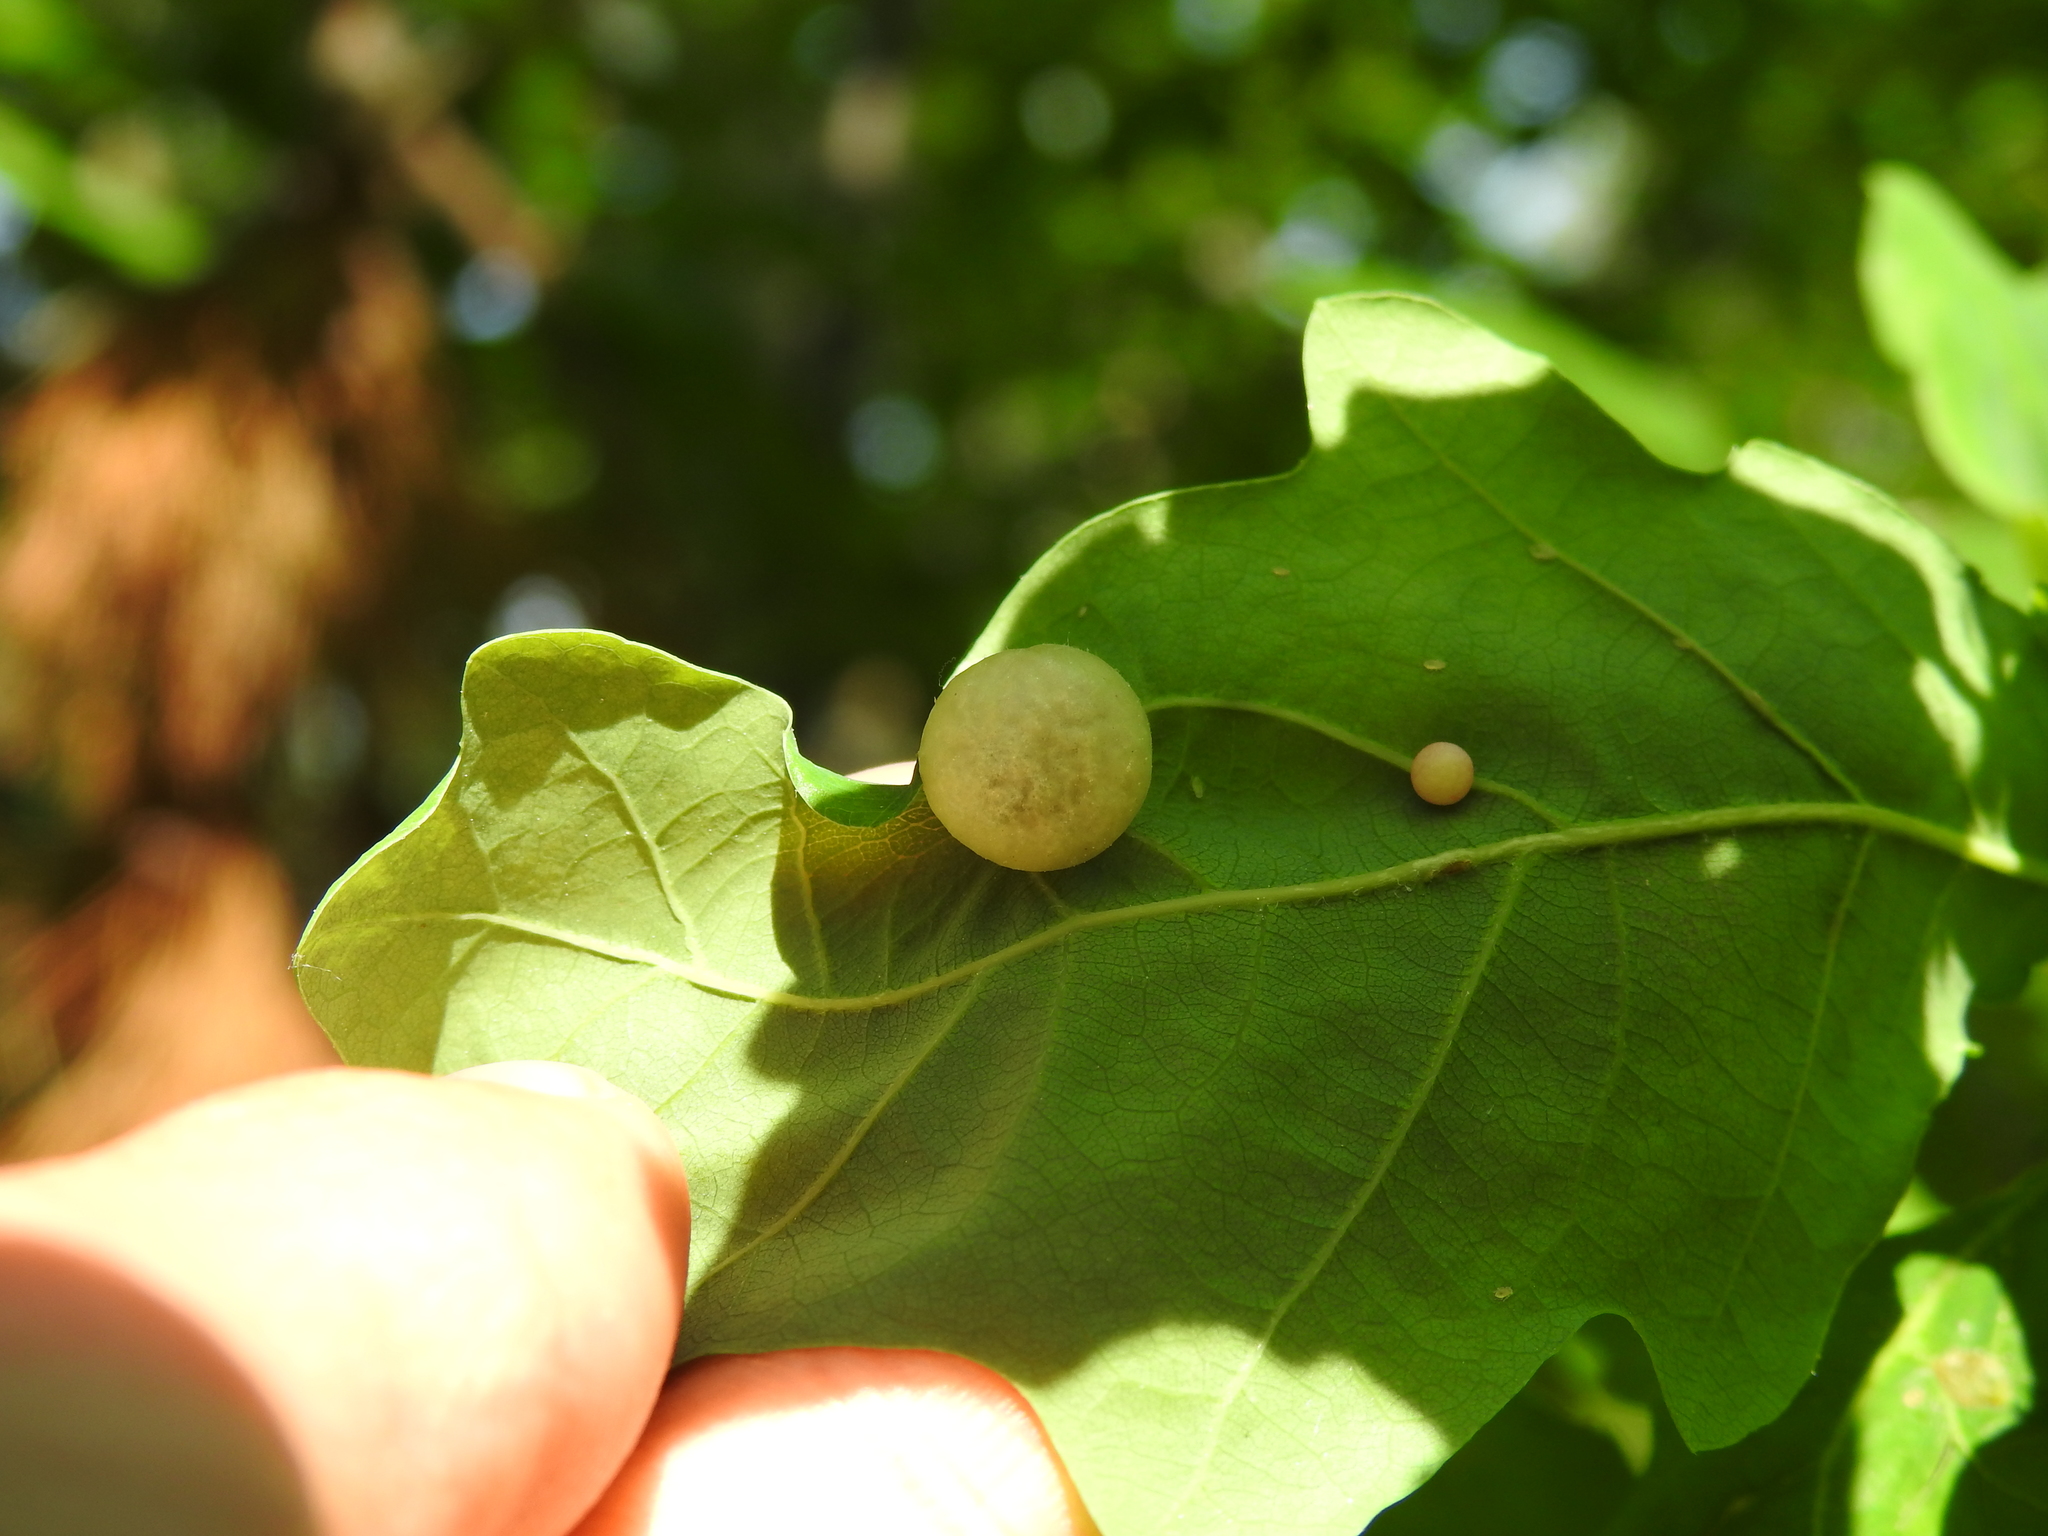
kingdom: Animalia
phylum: Arthropoda
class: Insecta
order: Hymenoptera
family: Cynipidae
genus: Neuroterus
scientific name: Neuroterus quercusbaccarum
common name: Common spangle gall
